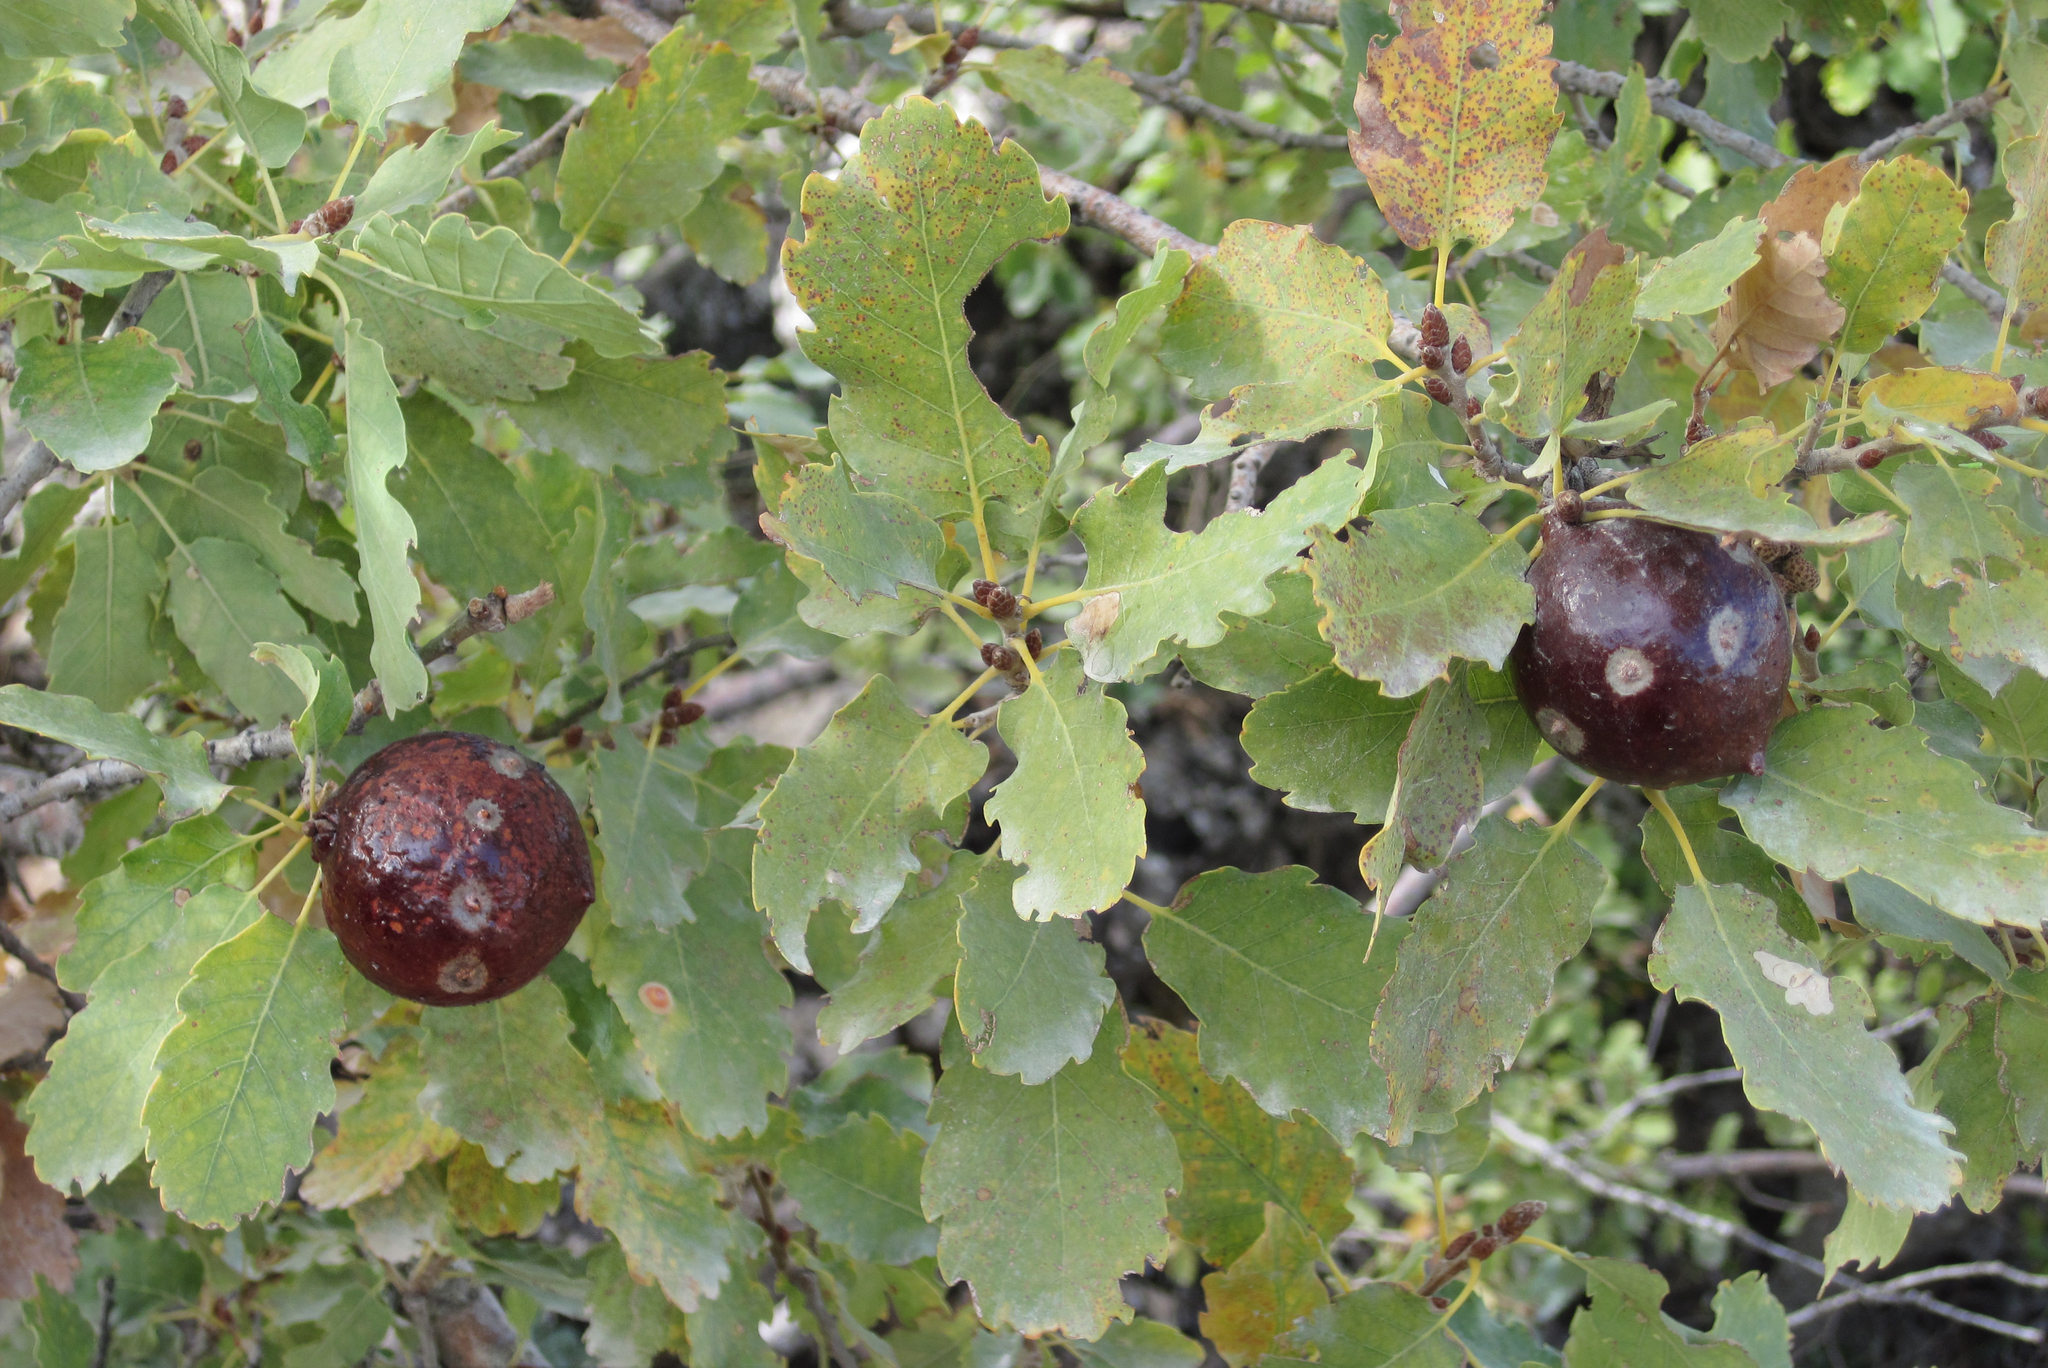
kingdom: Plantae
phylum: Tracheophyta
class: Magnoliopsida
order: Fagales
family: Fagaceae
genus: Quercus
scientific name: Quercus infectoria
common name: Aleppo oak
